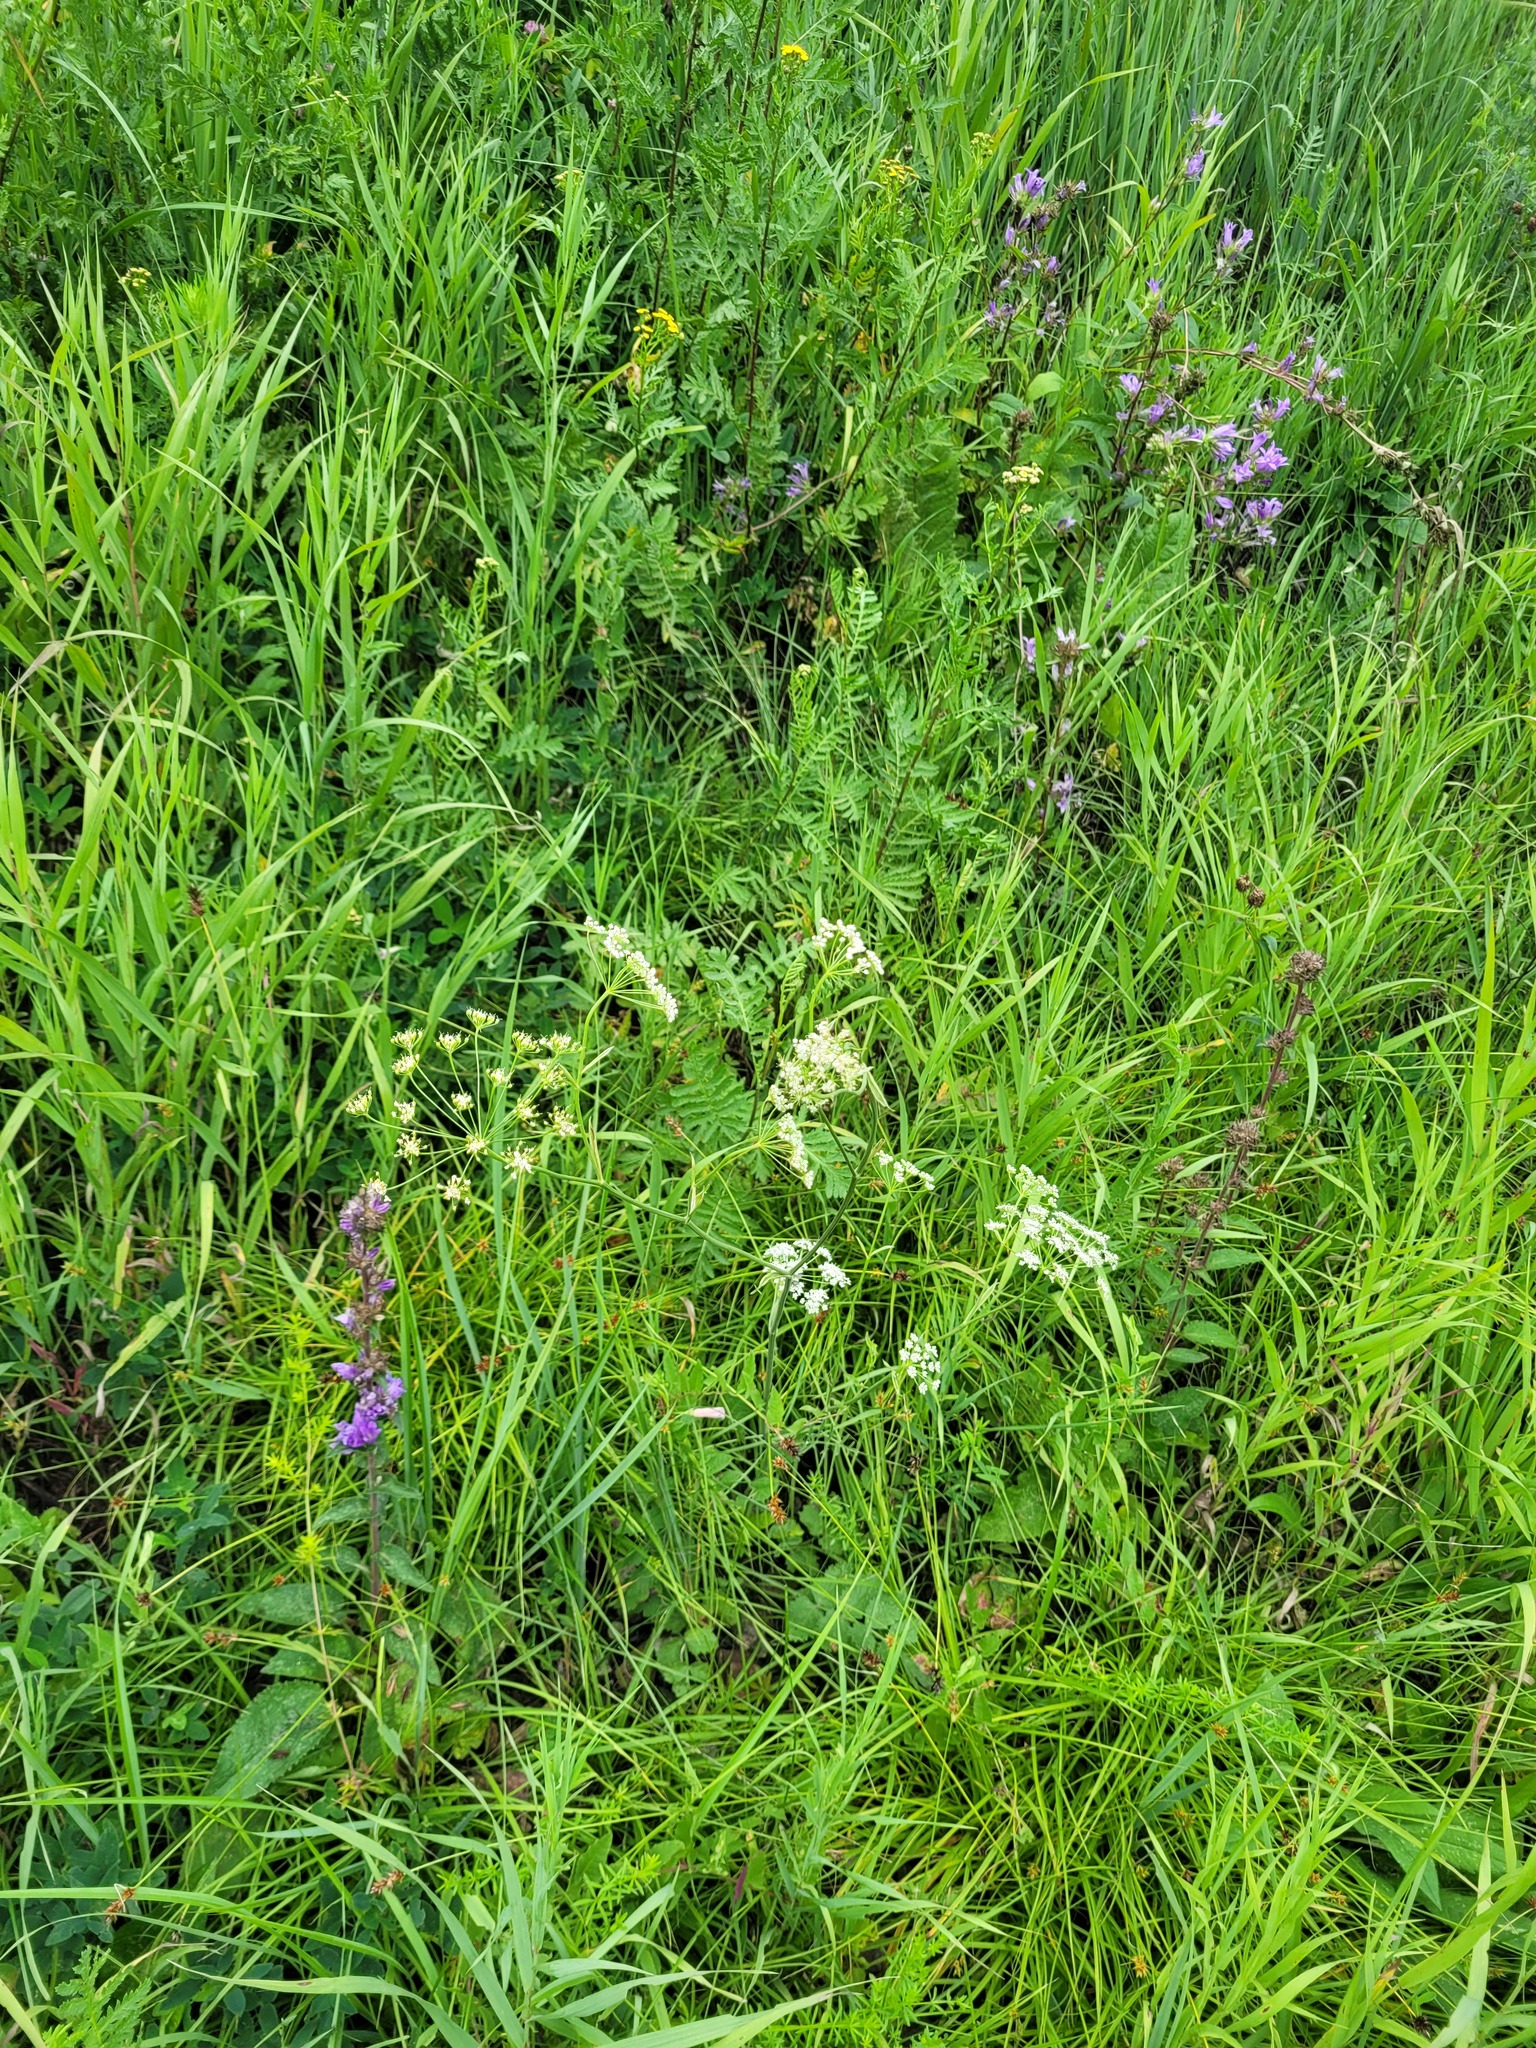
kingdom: Plantae
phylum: Tracheophyta
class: Magnoliopsida
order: Apiales
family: Apiaceae
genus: Pimpinella
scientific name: Pimpinella saxifraga
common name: Burnet-saxifrage
